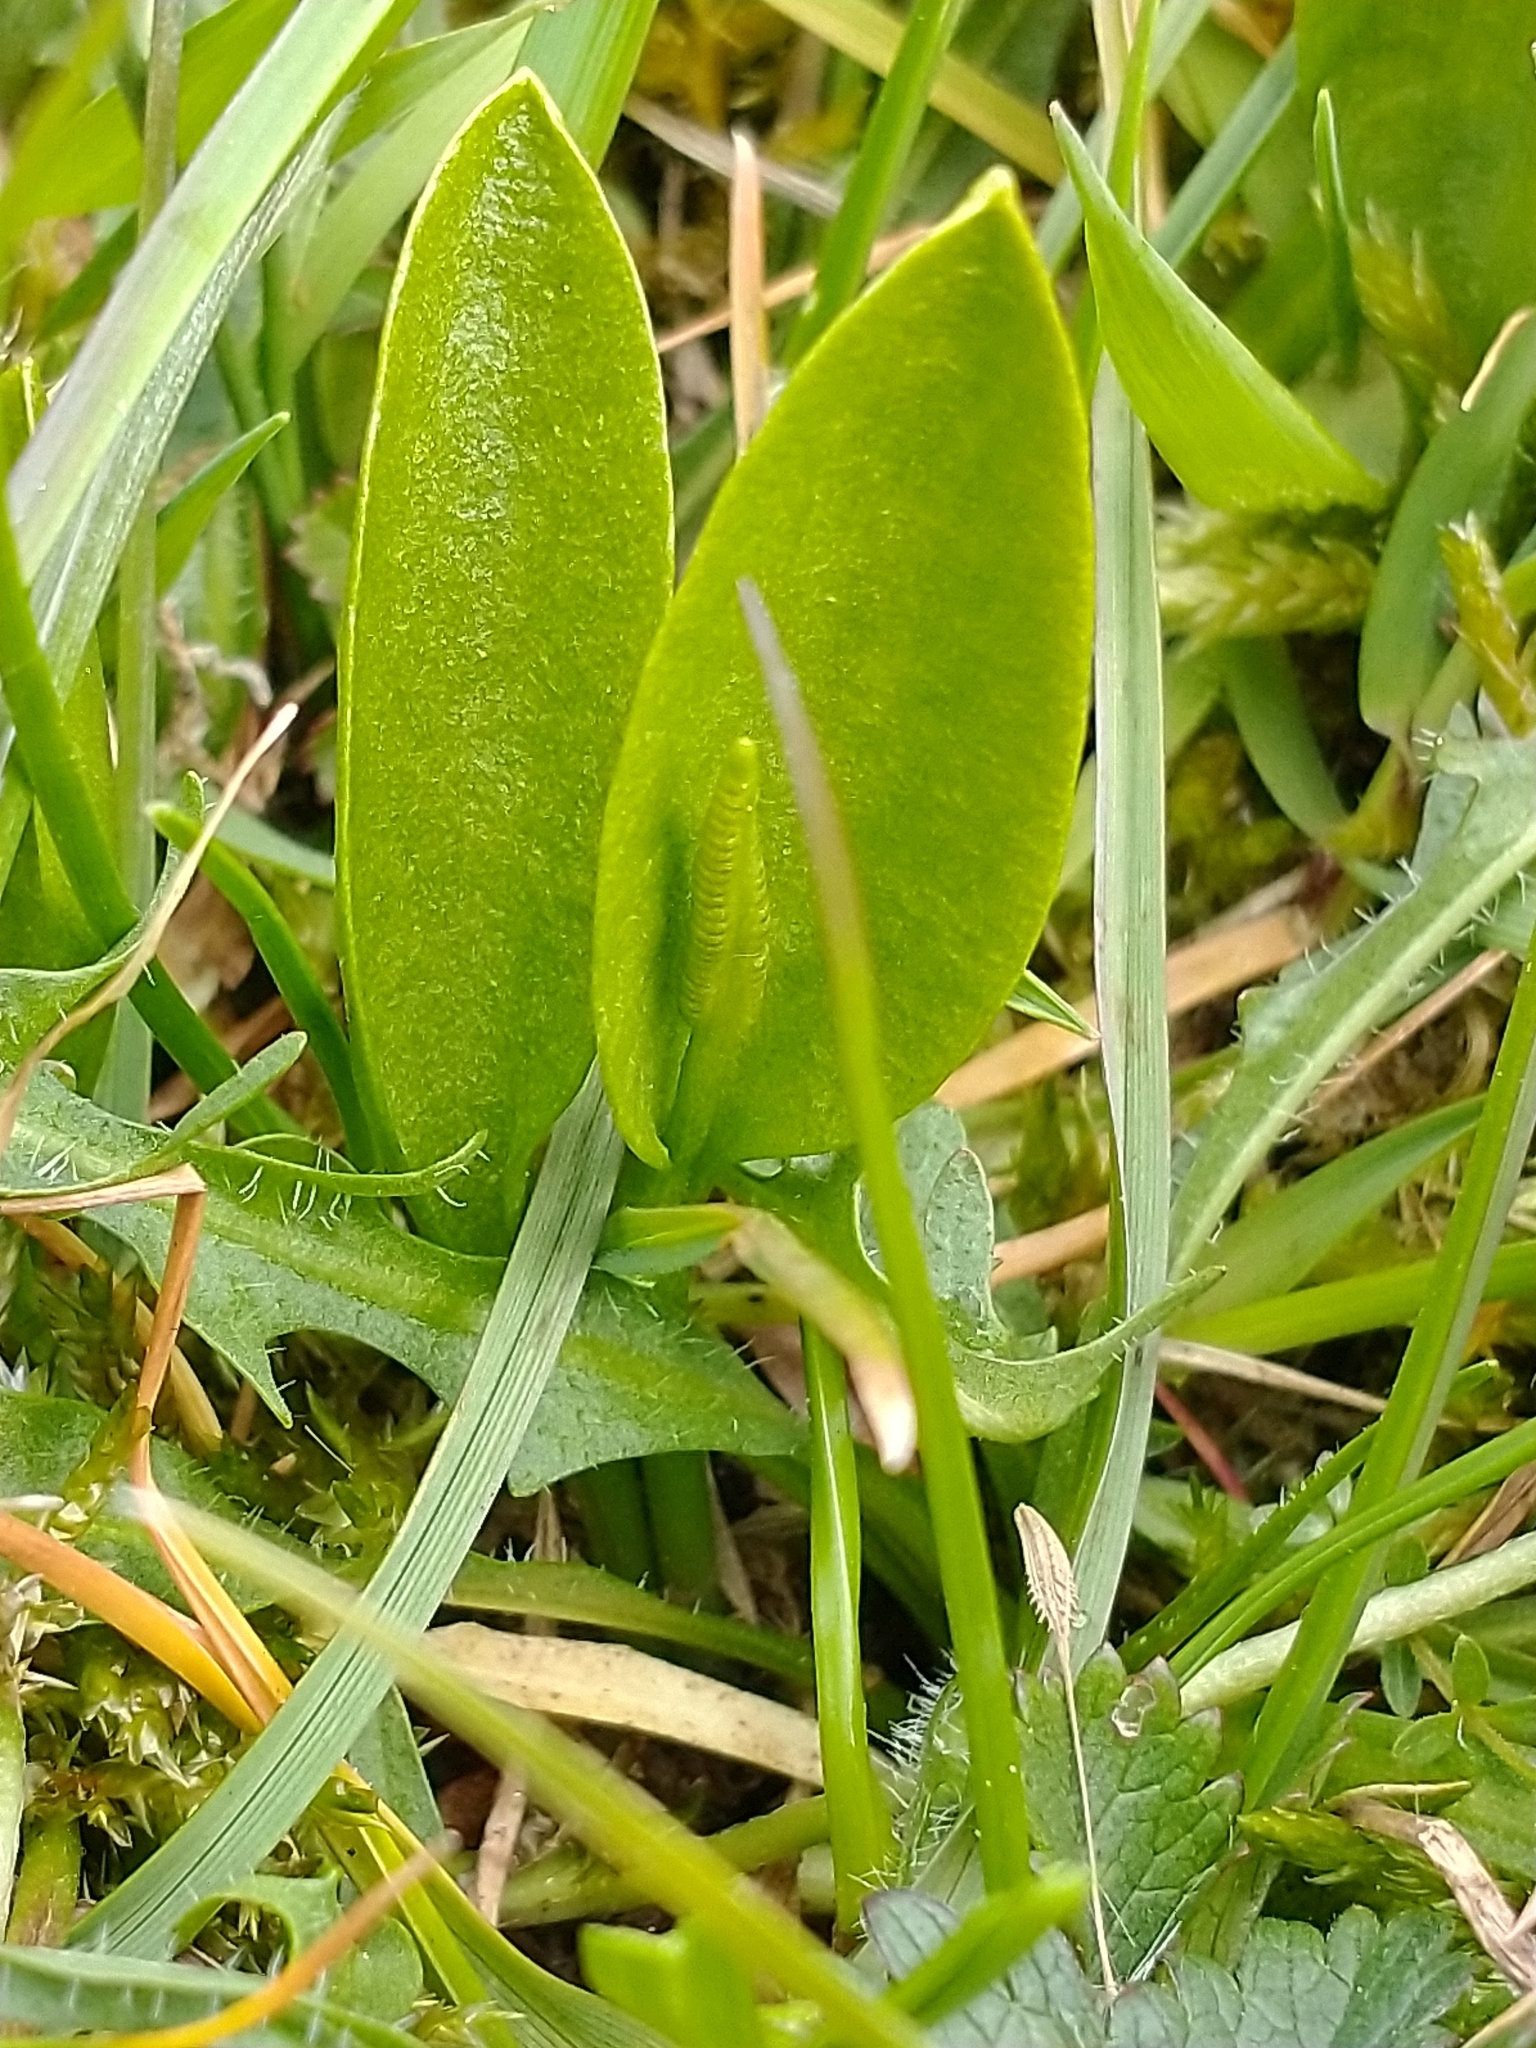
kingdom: Plantae
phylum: Tracheophyta
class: Polypodiopsida
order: Ophioglossales
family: Ophioglossaceae
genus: Ophioglossum
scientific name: Ophioglossum vulgatum
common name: Adder's-tongue
